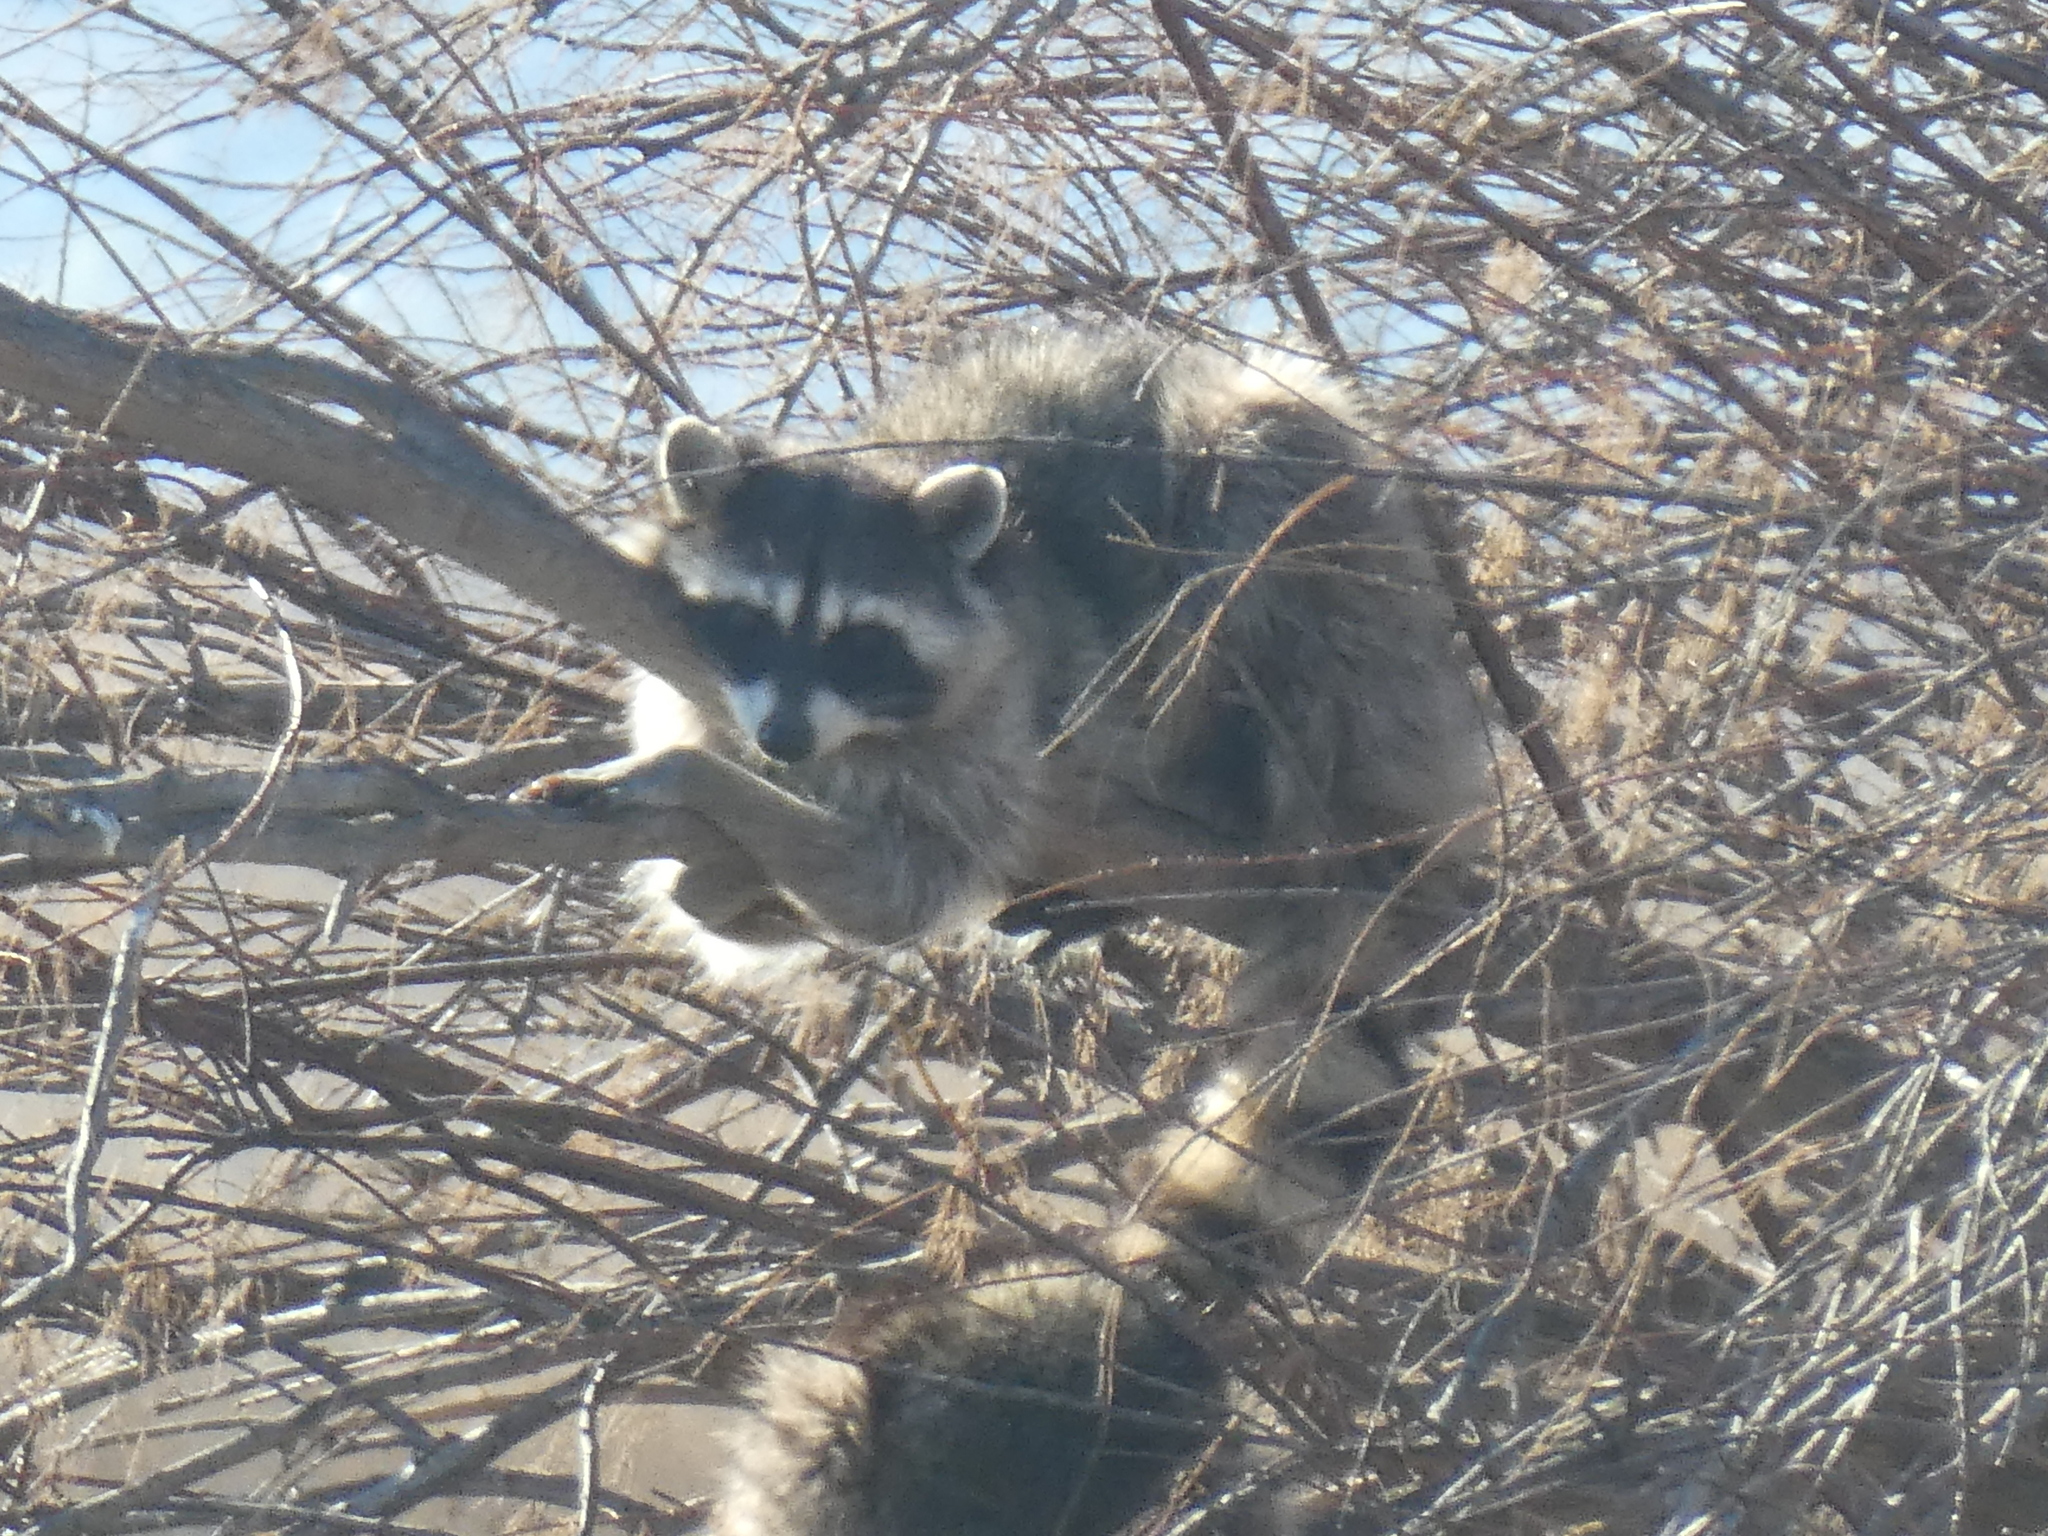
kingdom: Animalia
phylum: Chordata
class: Mammalia
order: Carnivora
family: Procyonidae
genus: Procyon
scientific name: Procyon lotor
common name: Raccoon
